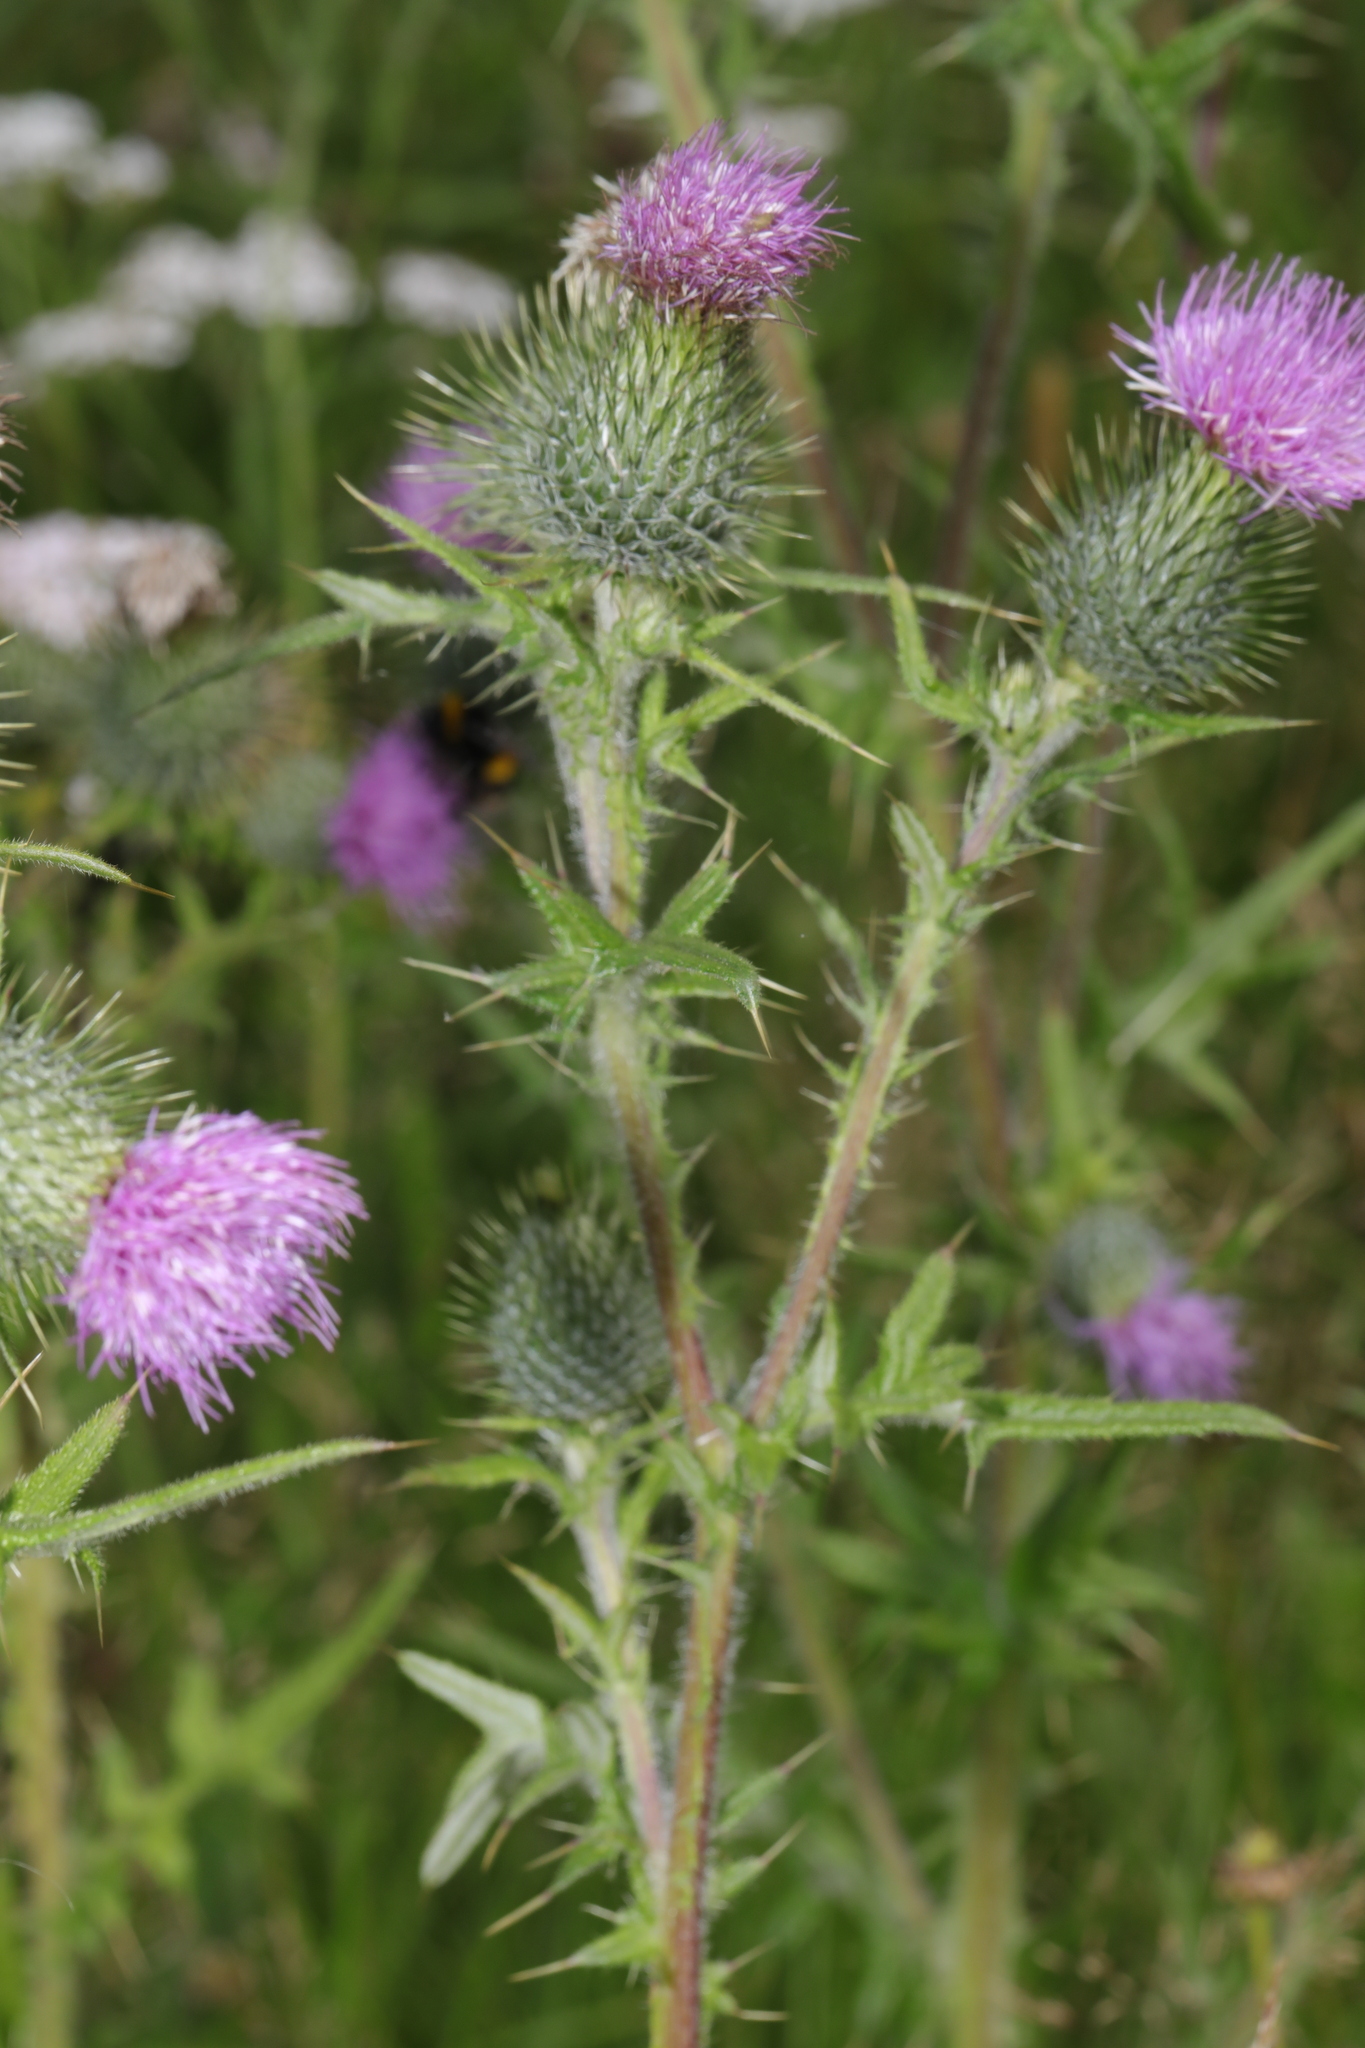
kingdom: Plantae
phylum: Tracheophyta
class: Magnoliopsida
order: Asterales
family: Asteraceae
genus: Cirsium
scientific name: Cirsium vulgare
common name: Bull thistle
